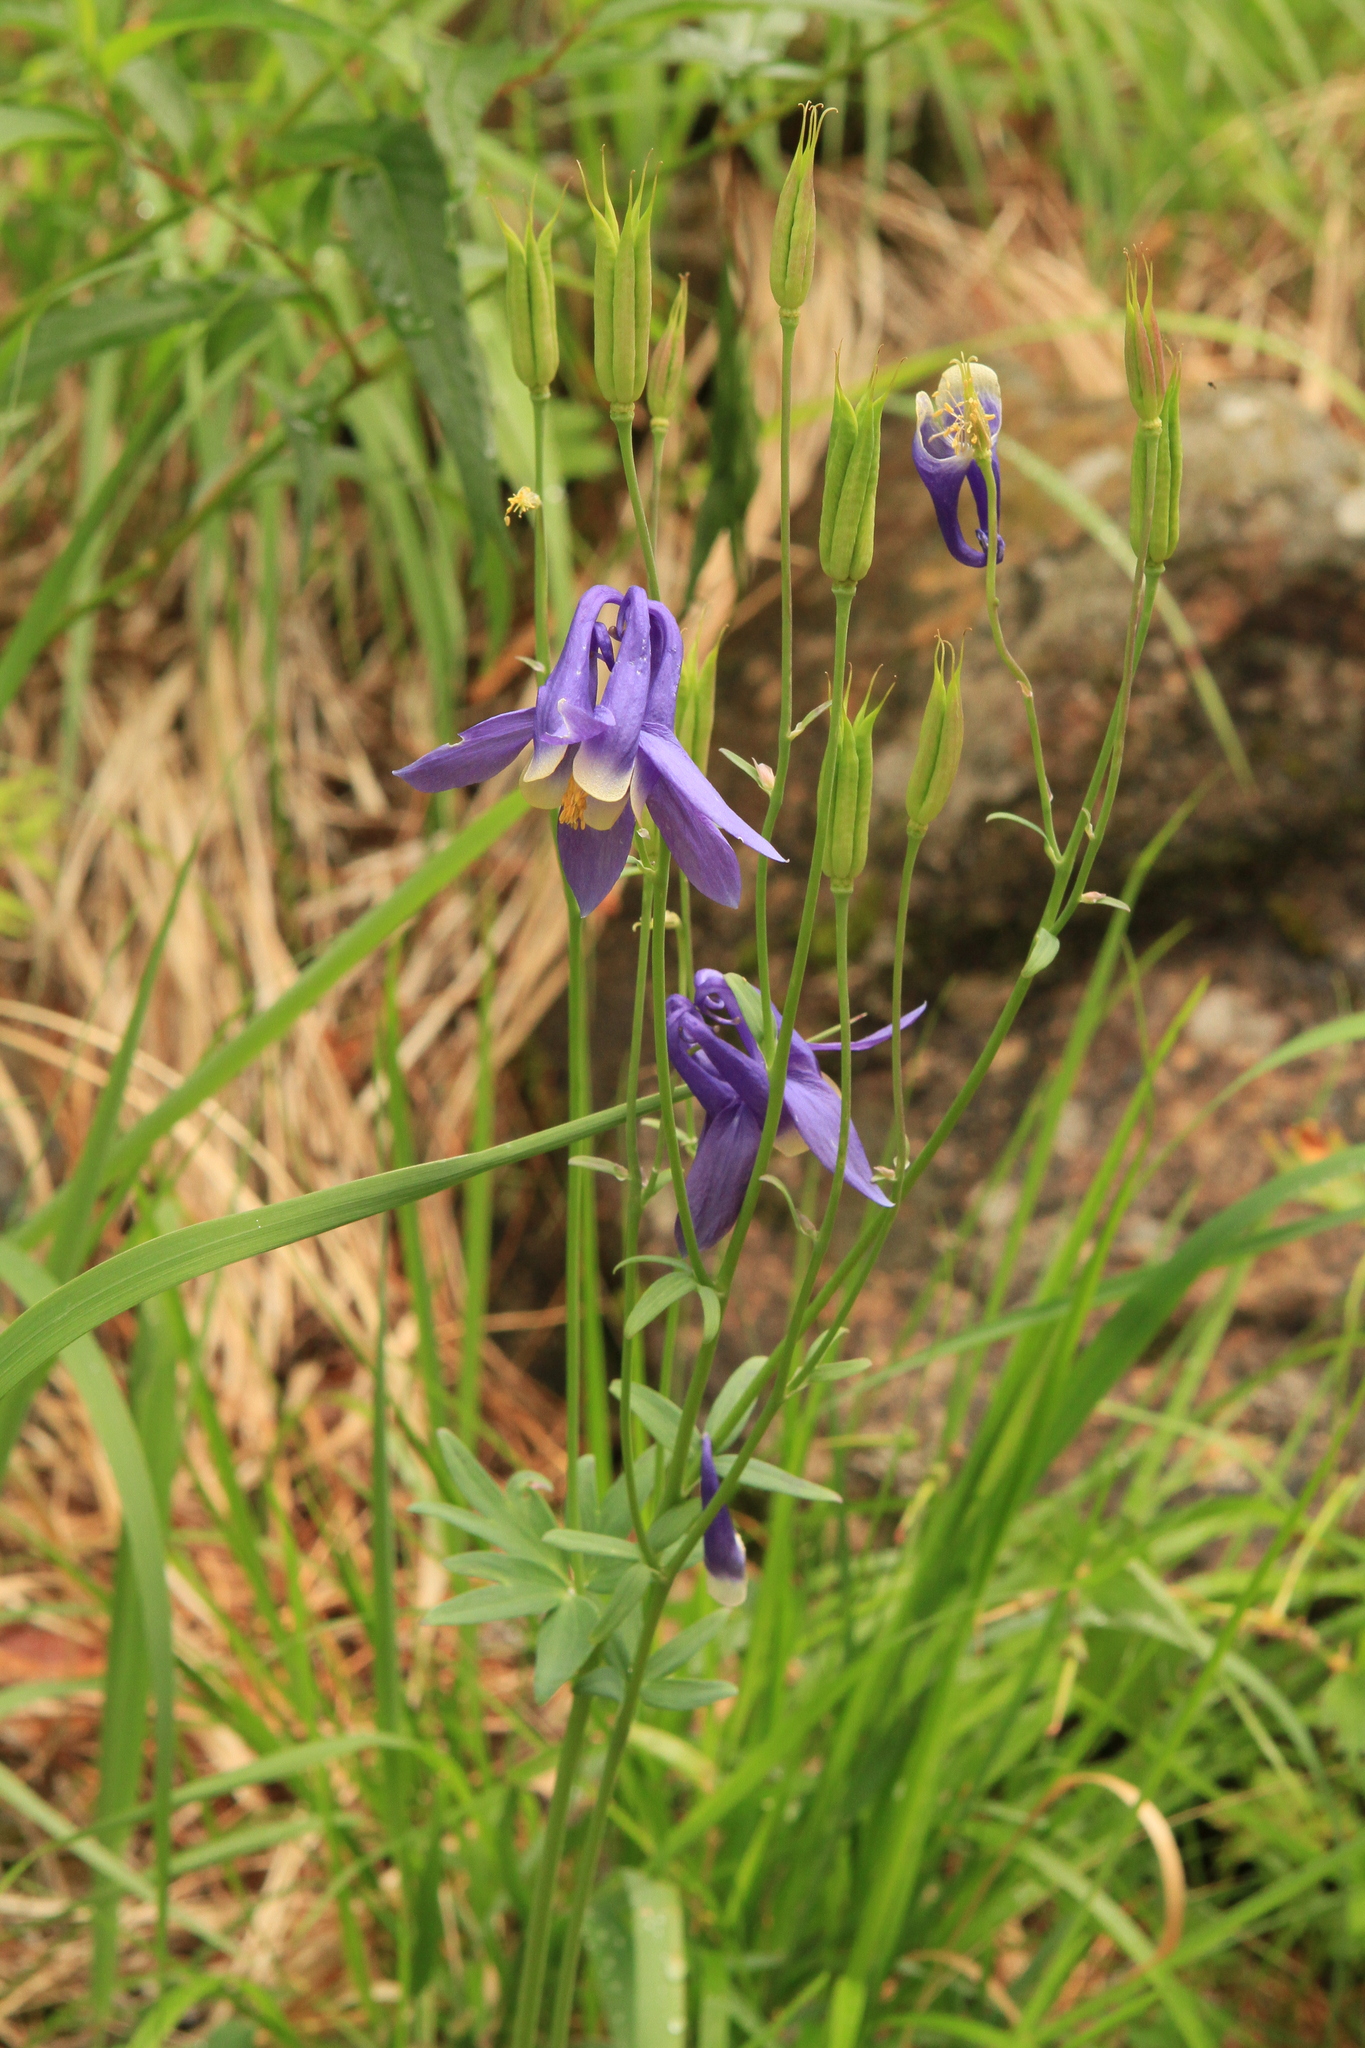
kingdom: Plantae
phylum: Tracheophyta
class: Magnoliopsida
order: Ranunculales
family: Ranunculaceae
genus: Aquilegia
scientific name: Aquilegia sibirica
